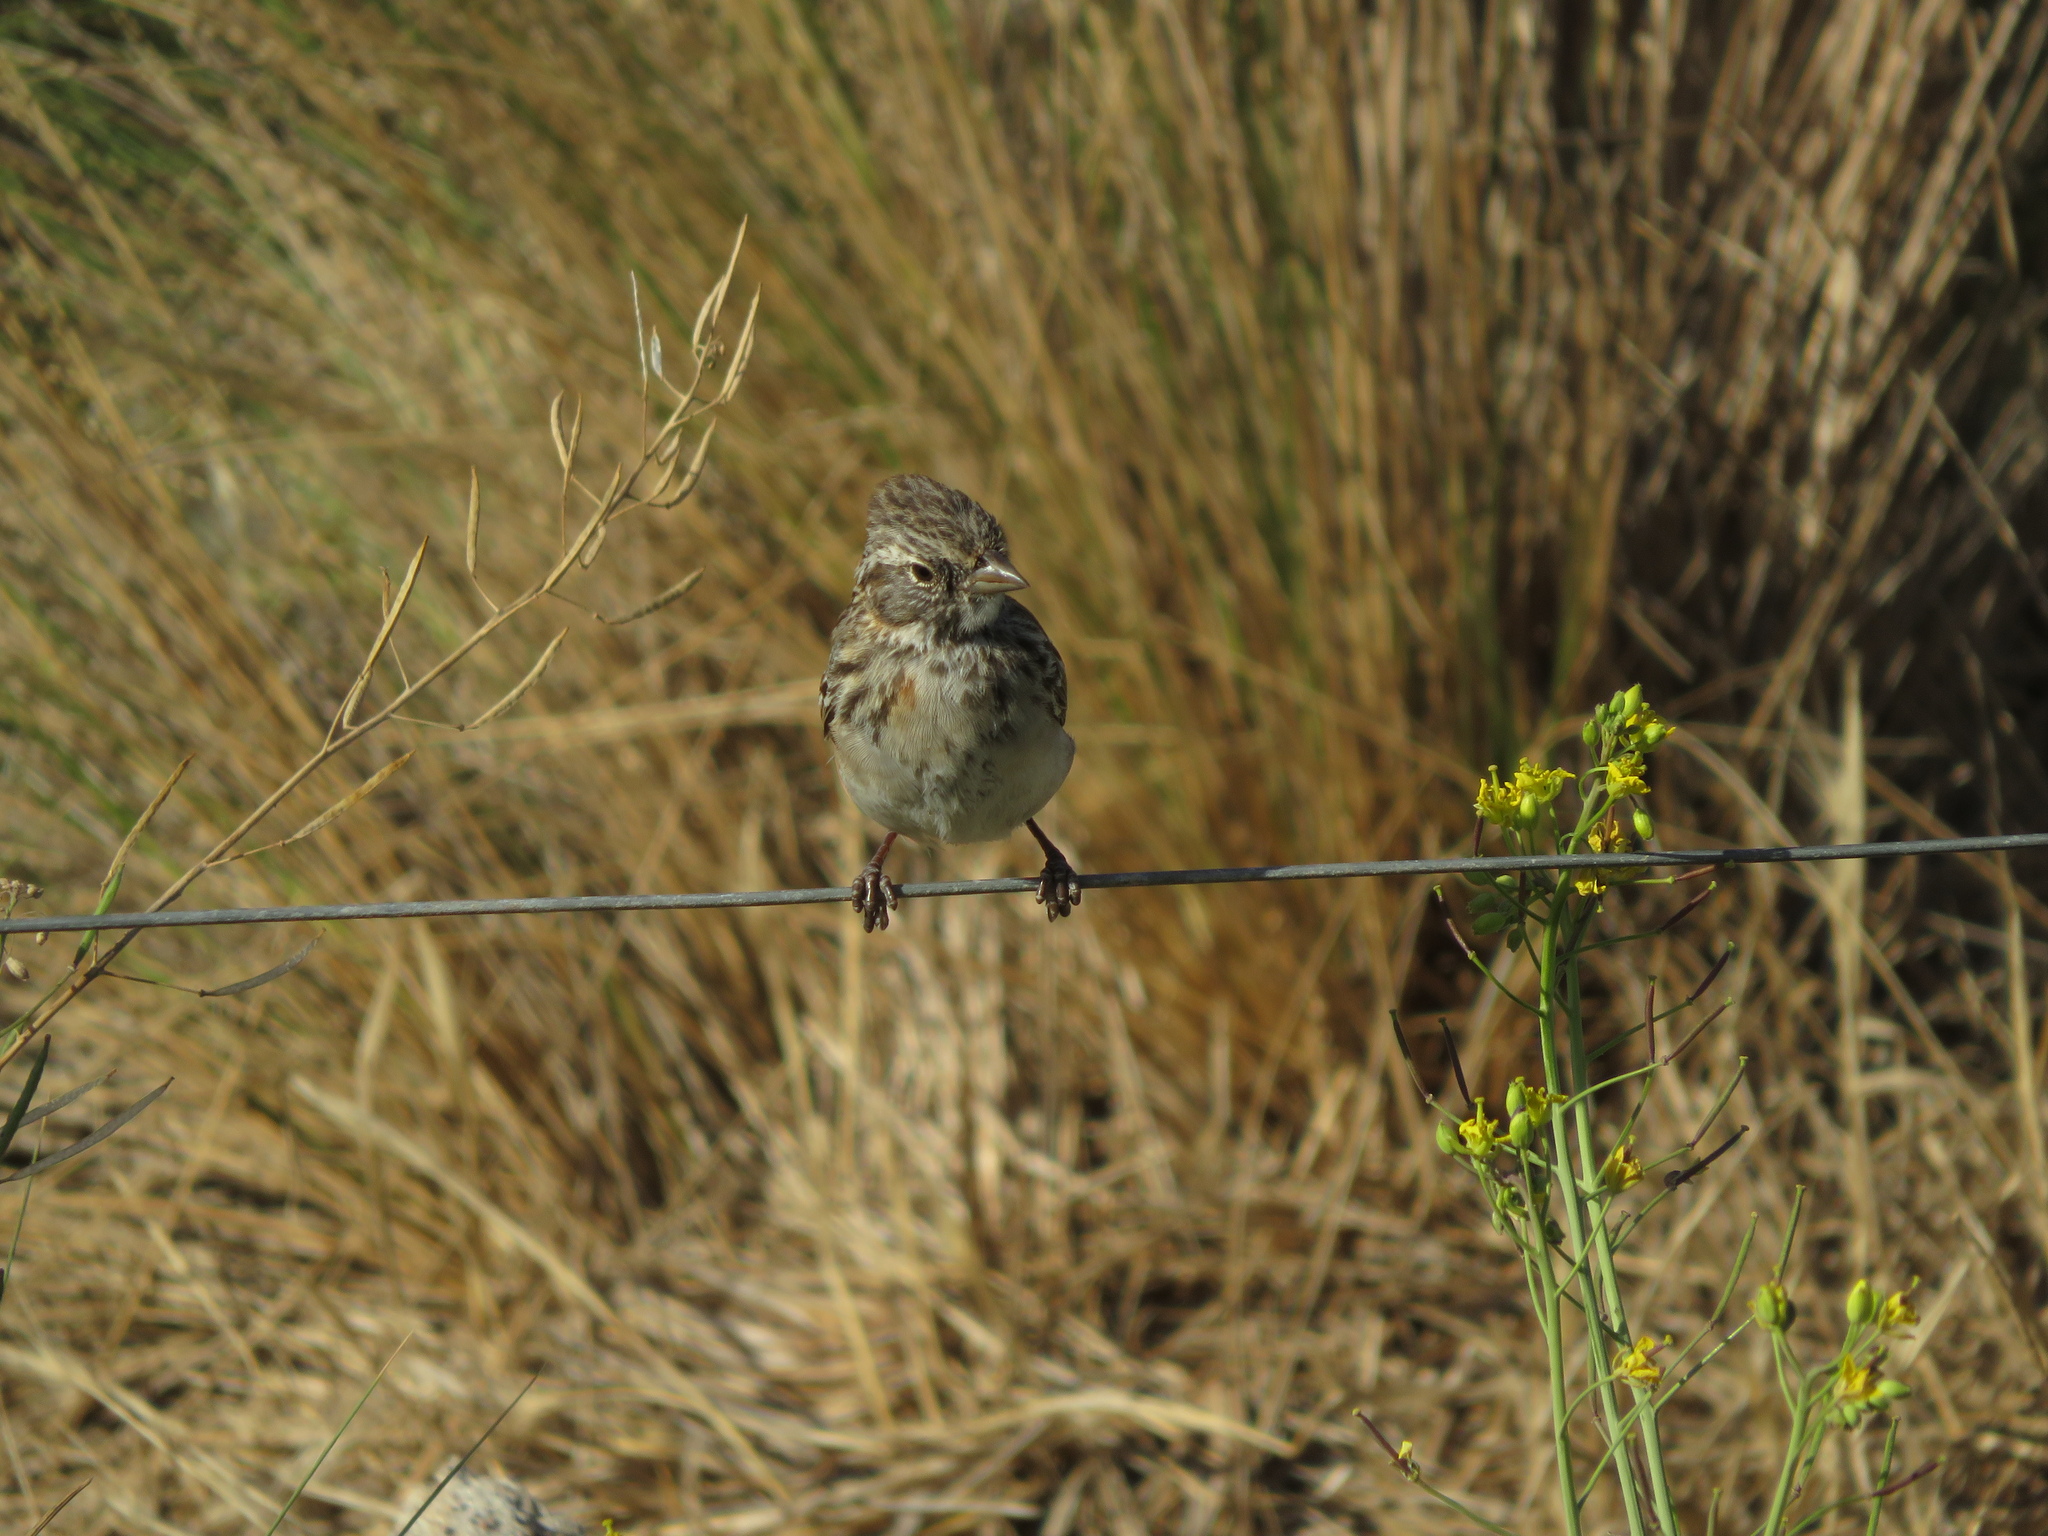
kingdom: Animalia
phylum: Chordata
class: Aves
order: Passeriformes
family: Passerellidae
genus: Zonotrichia
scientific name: Zonotrichia capensis
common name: Rufous-collared sparrow
